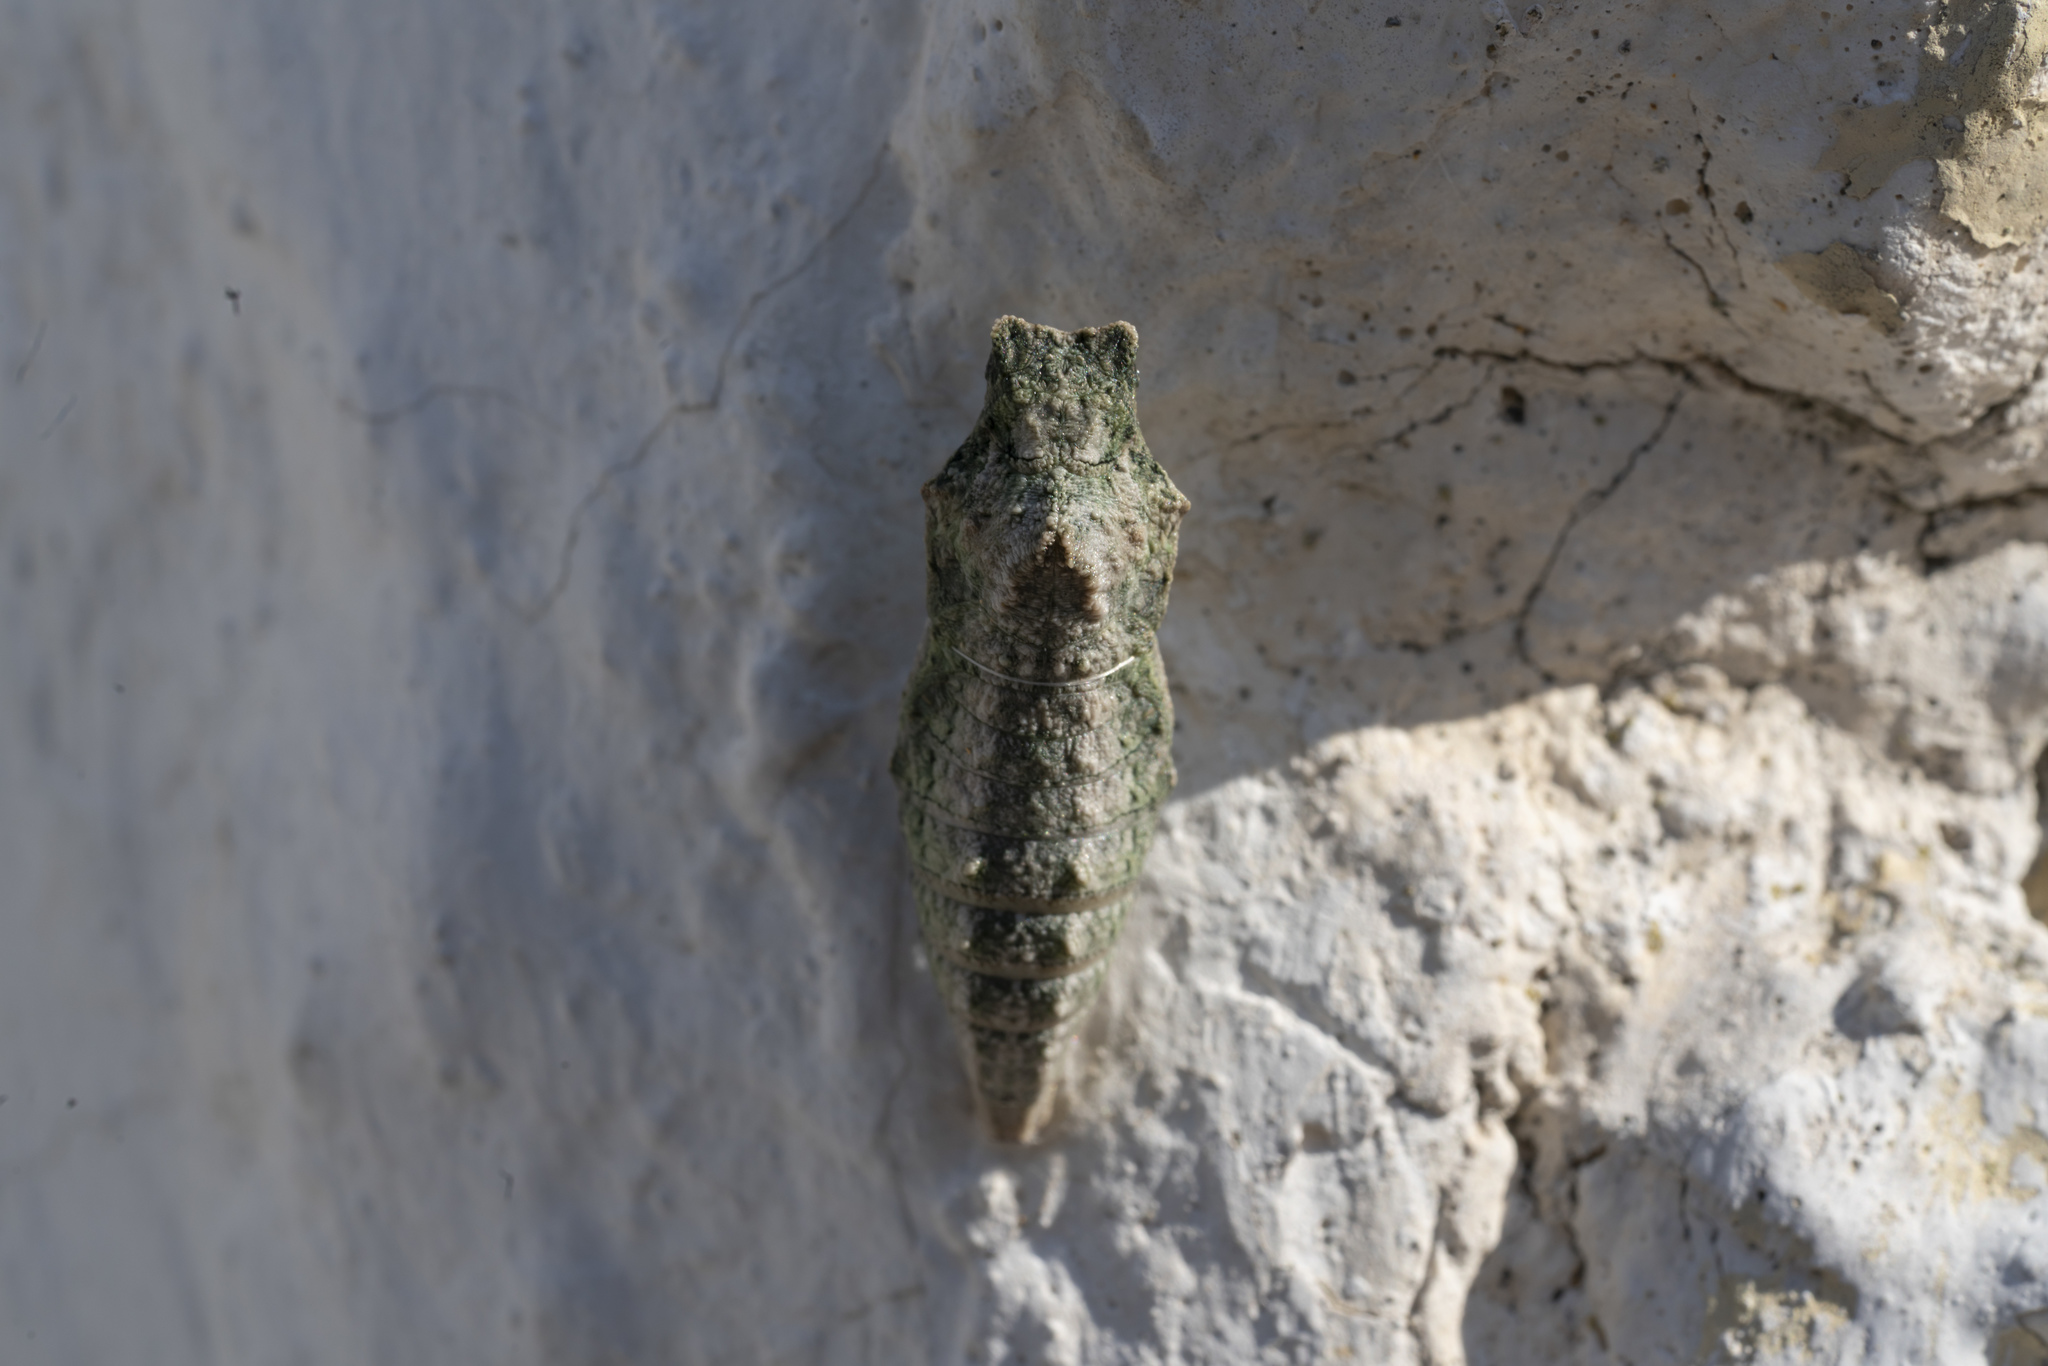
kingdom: Animalia
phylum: Arthropoda
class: Insecta
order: Lepidoptera
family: Papilionidae
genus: Papilio
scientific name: Papilio machaon
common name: Swallowtail
